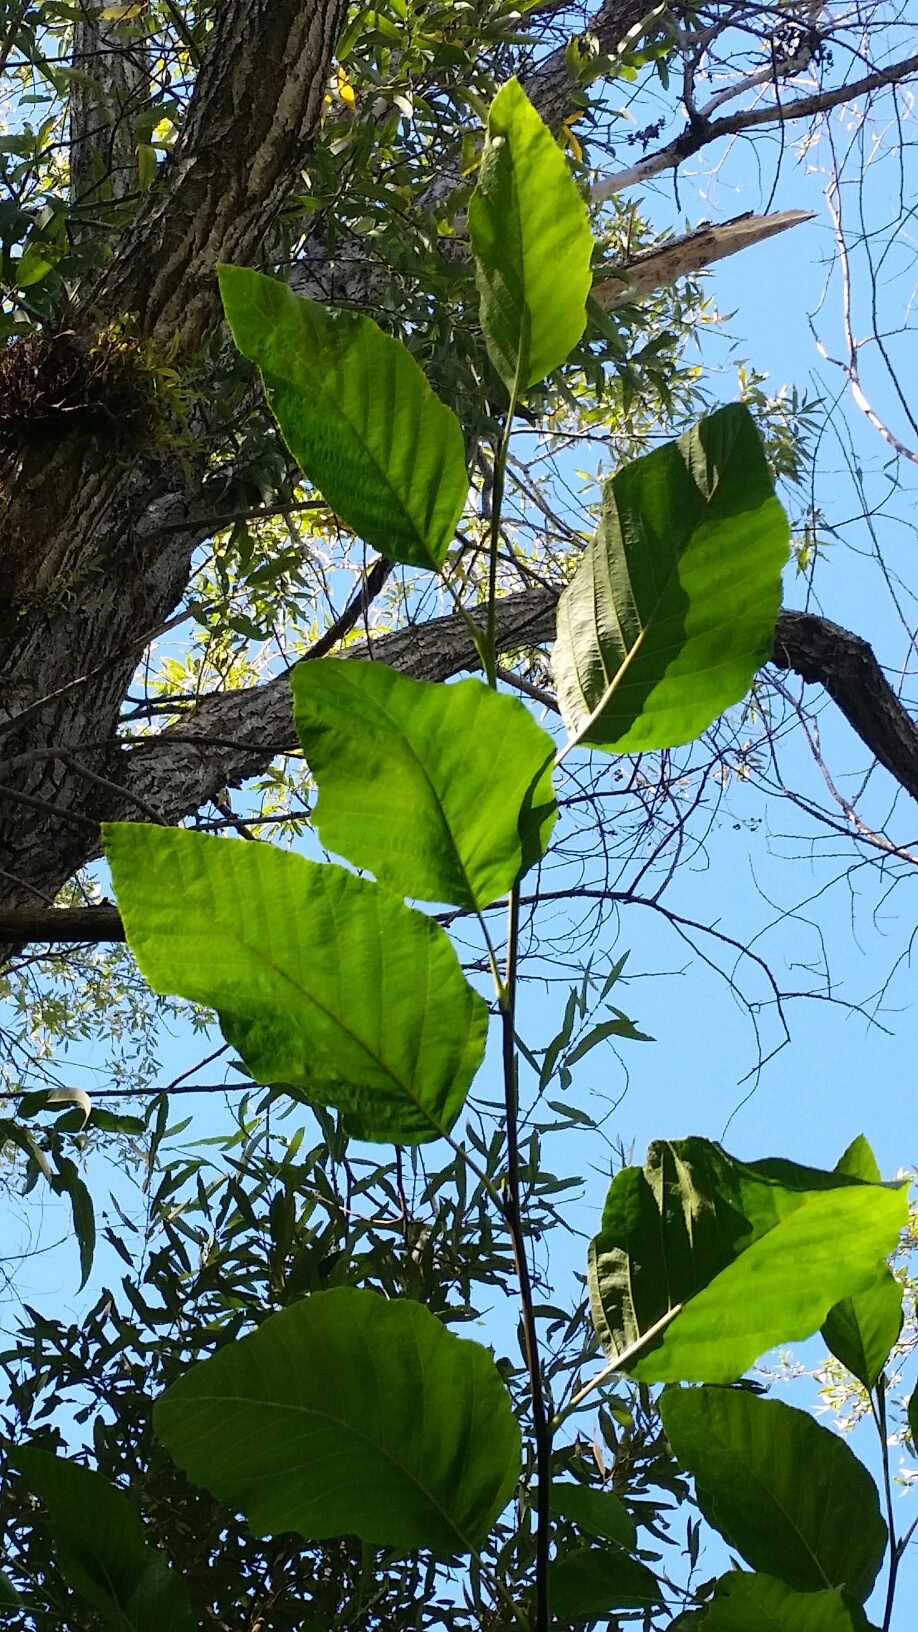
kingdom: Plantae
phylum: Tracheophyta
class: Magnoliopsida
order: Fagales
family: Betulaceae
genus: Alnus
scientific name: Alnus rhombifolia
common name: California alder
